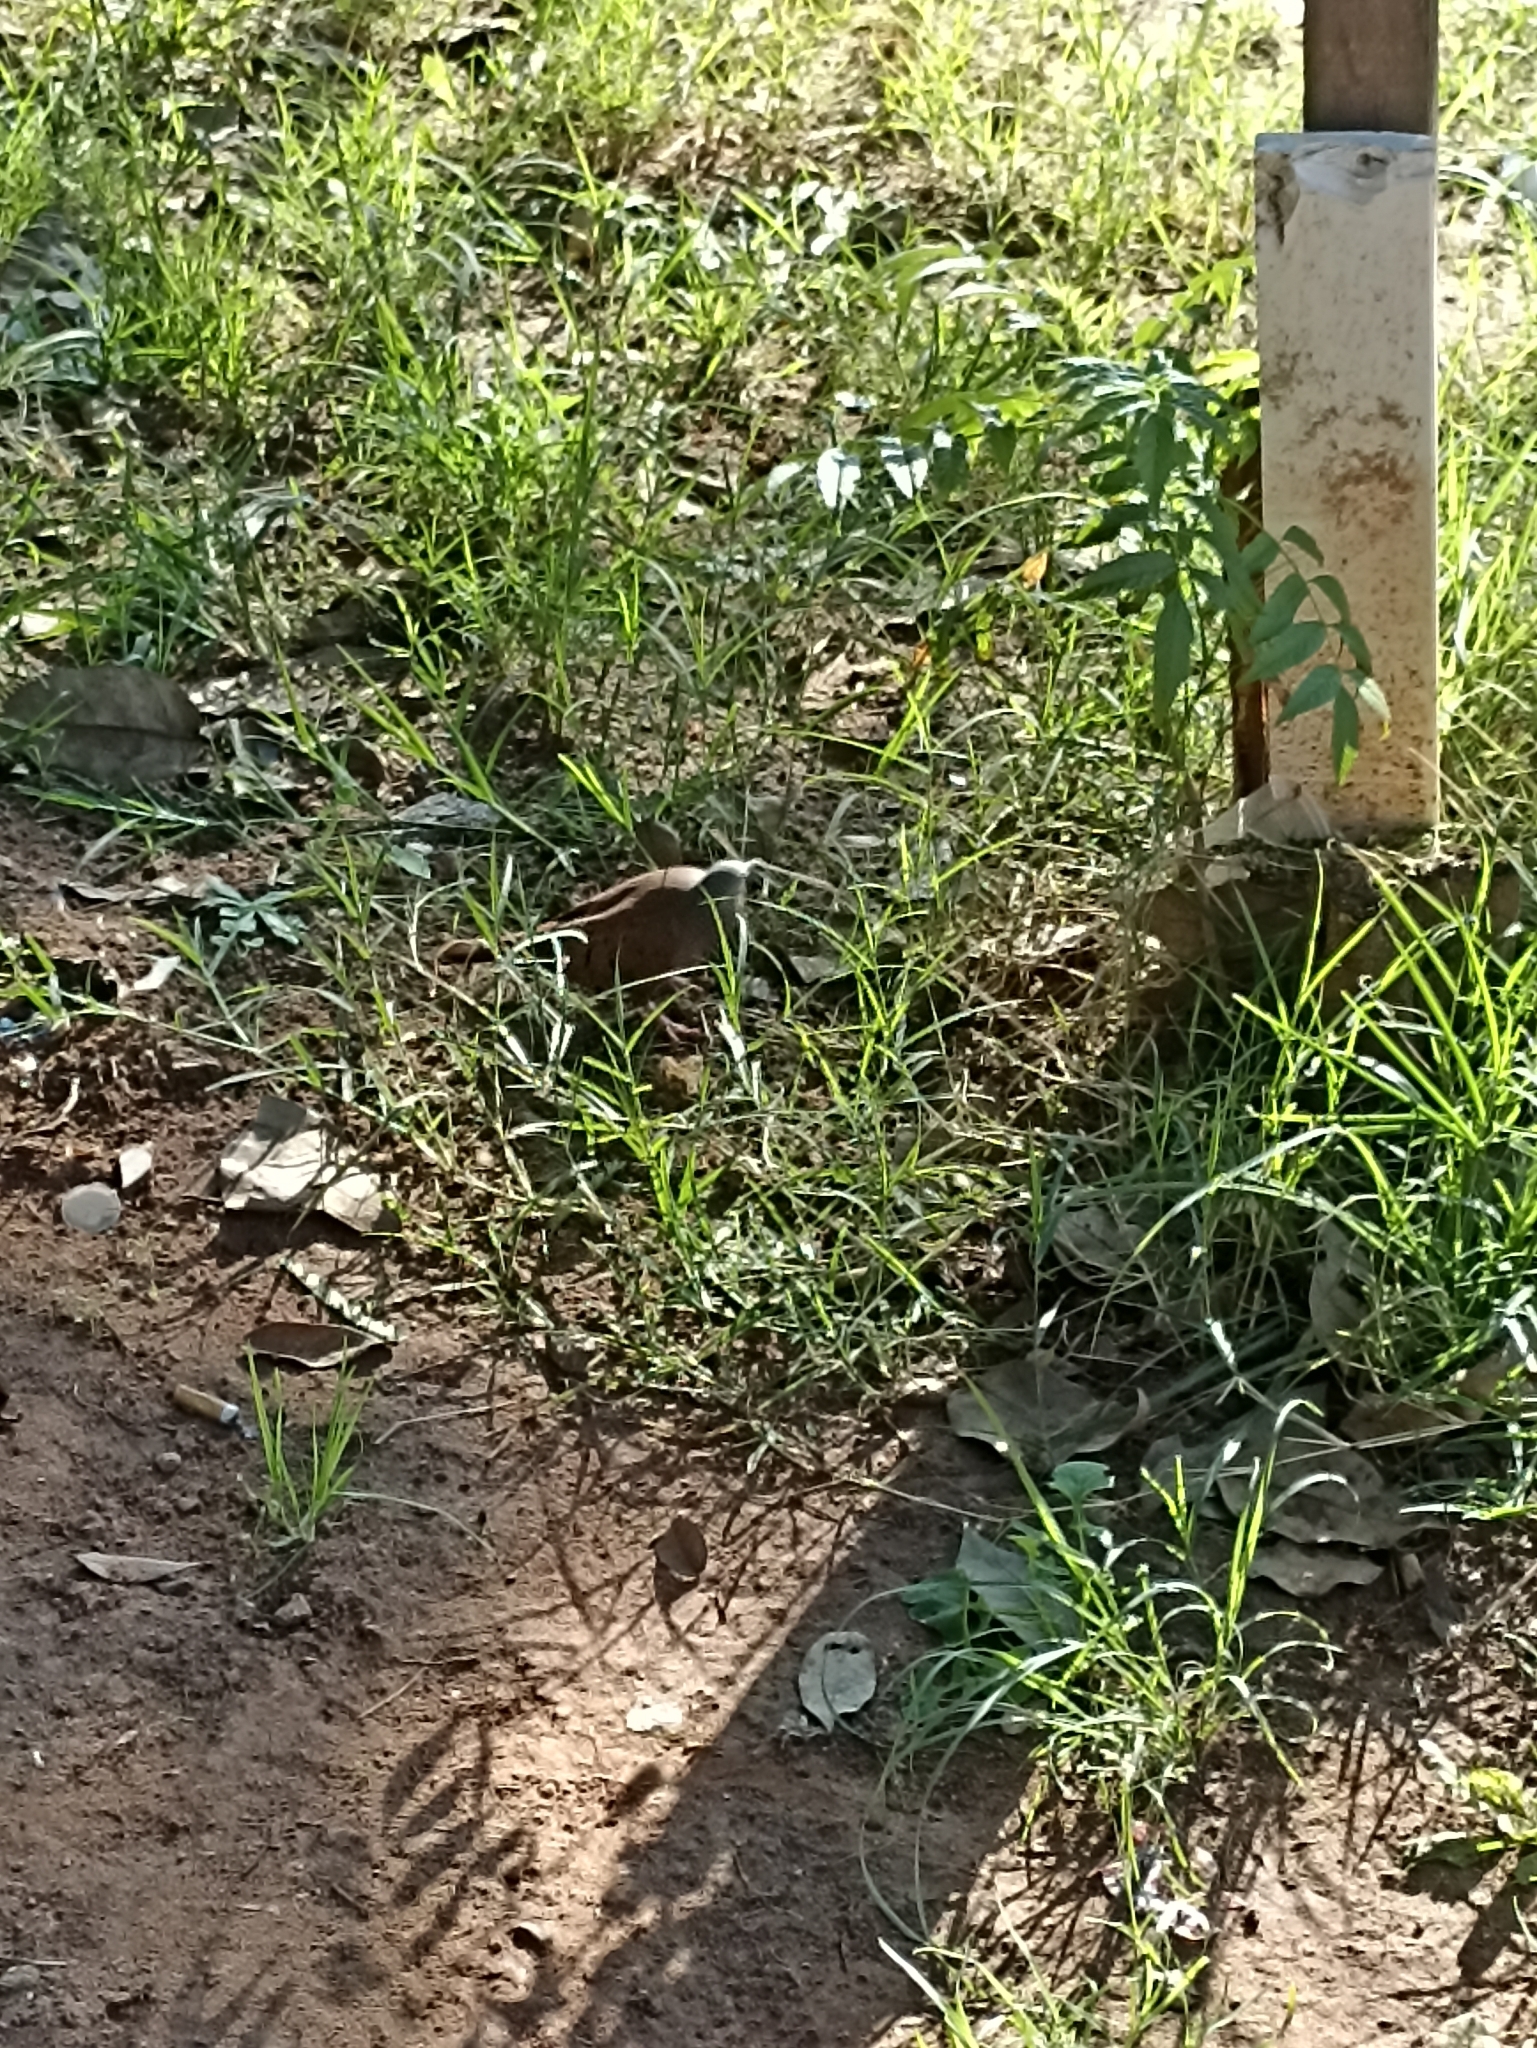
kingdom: Animalia
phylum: Chordata
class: Aves
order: Columbiformes
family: Columbidae
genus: Columbina
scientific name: Columbina talpacoti
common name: Ruddy ground dove
